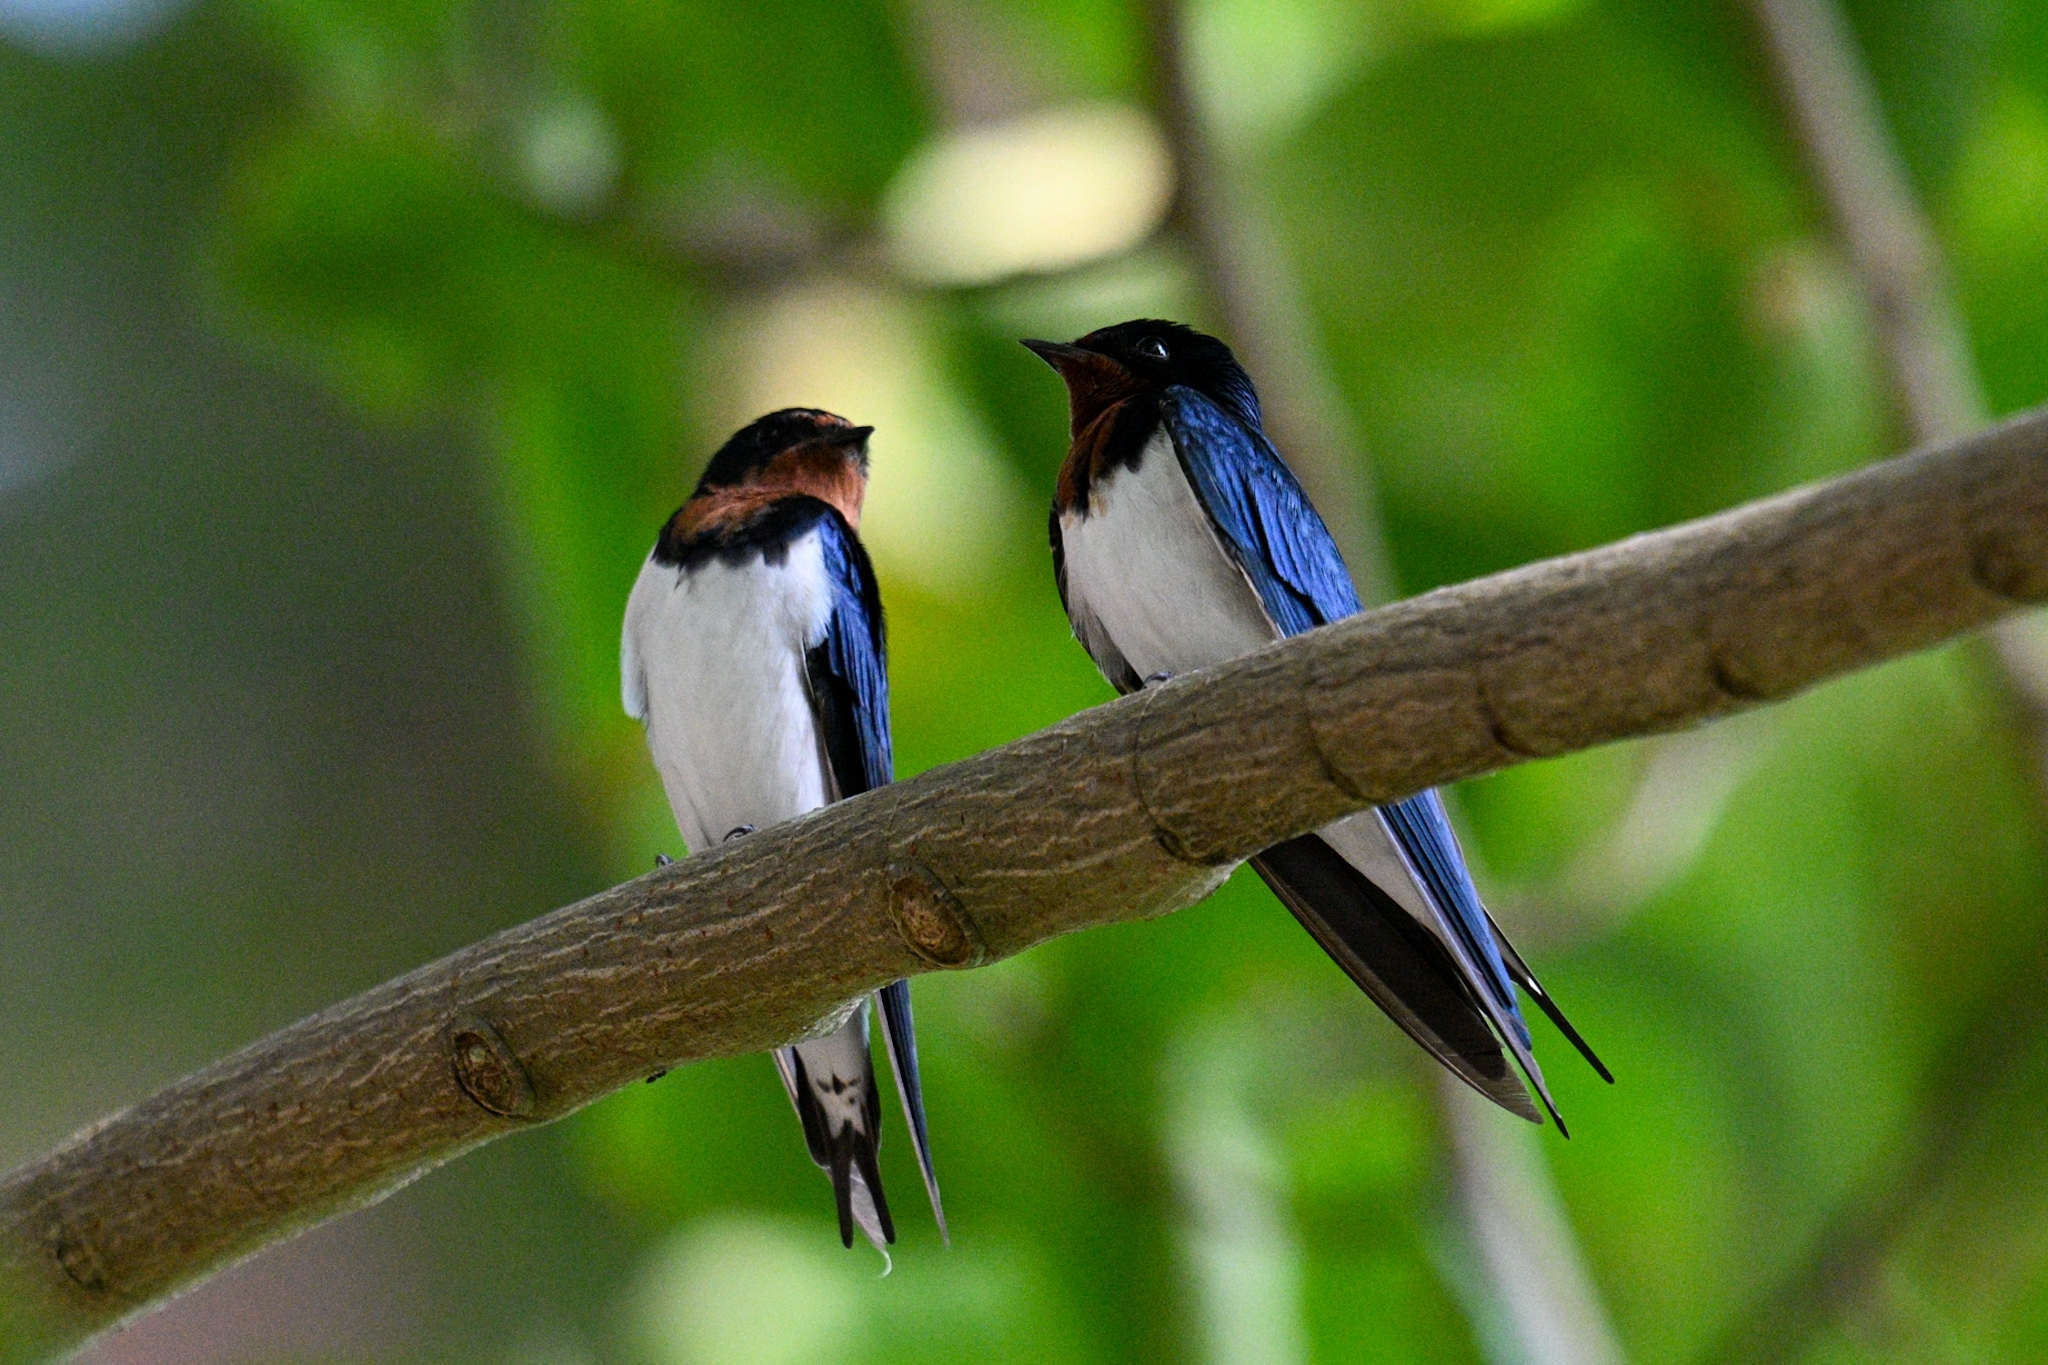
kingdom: Animalia
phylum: Chordata
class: Aves
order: Passeriformes
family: Hirundinidae
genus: Hirundo
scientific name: Hirundo lucida
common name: Red-chested swallow
